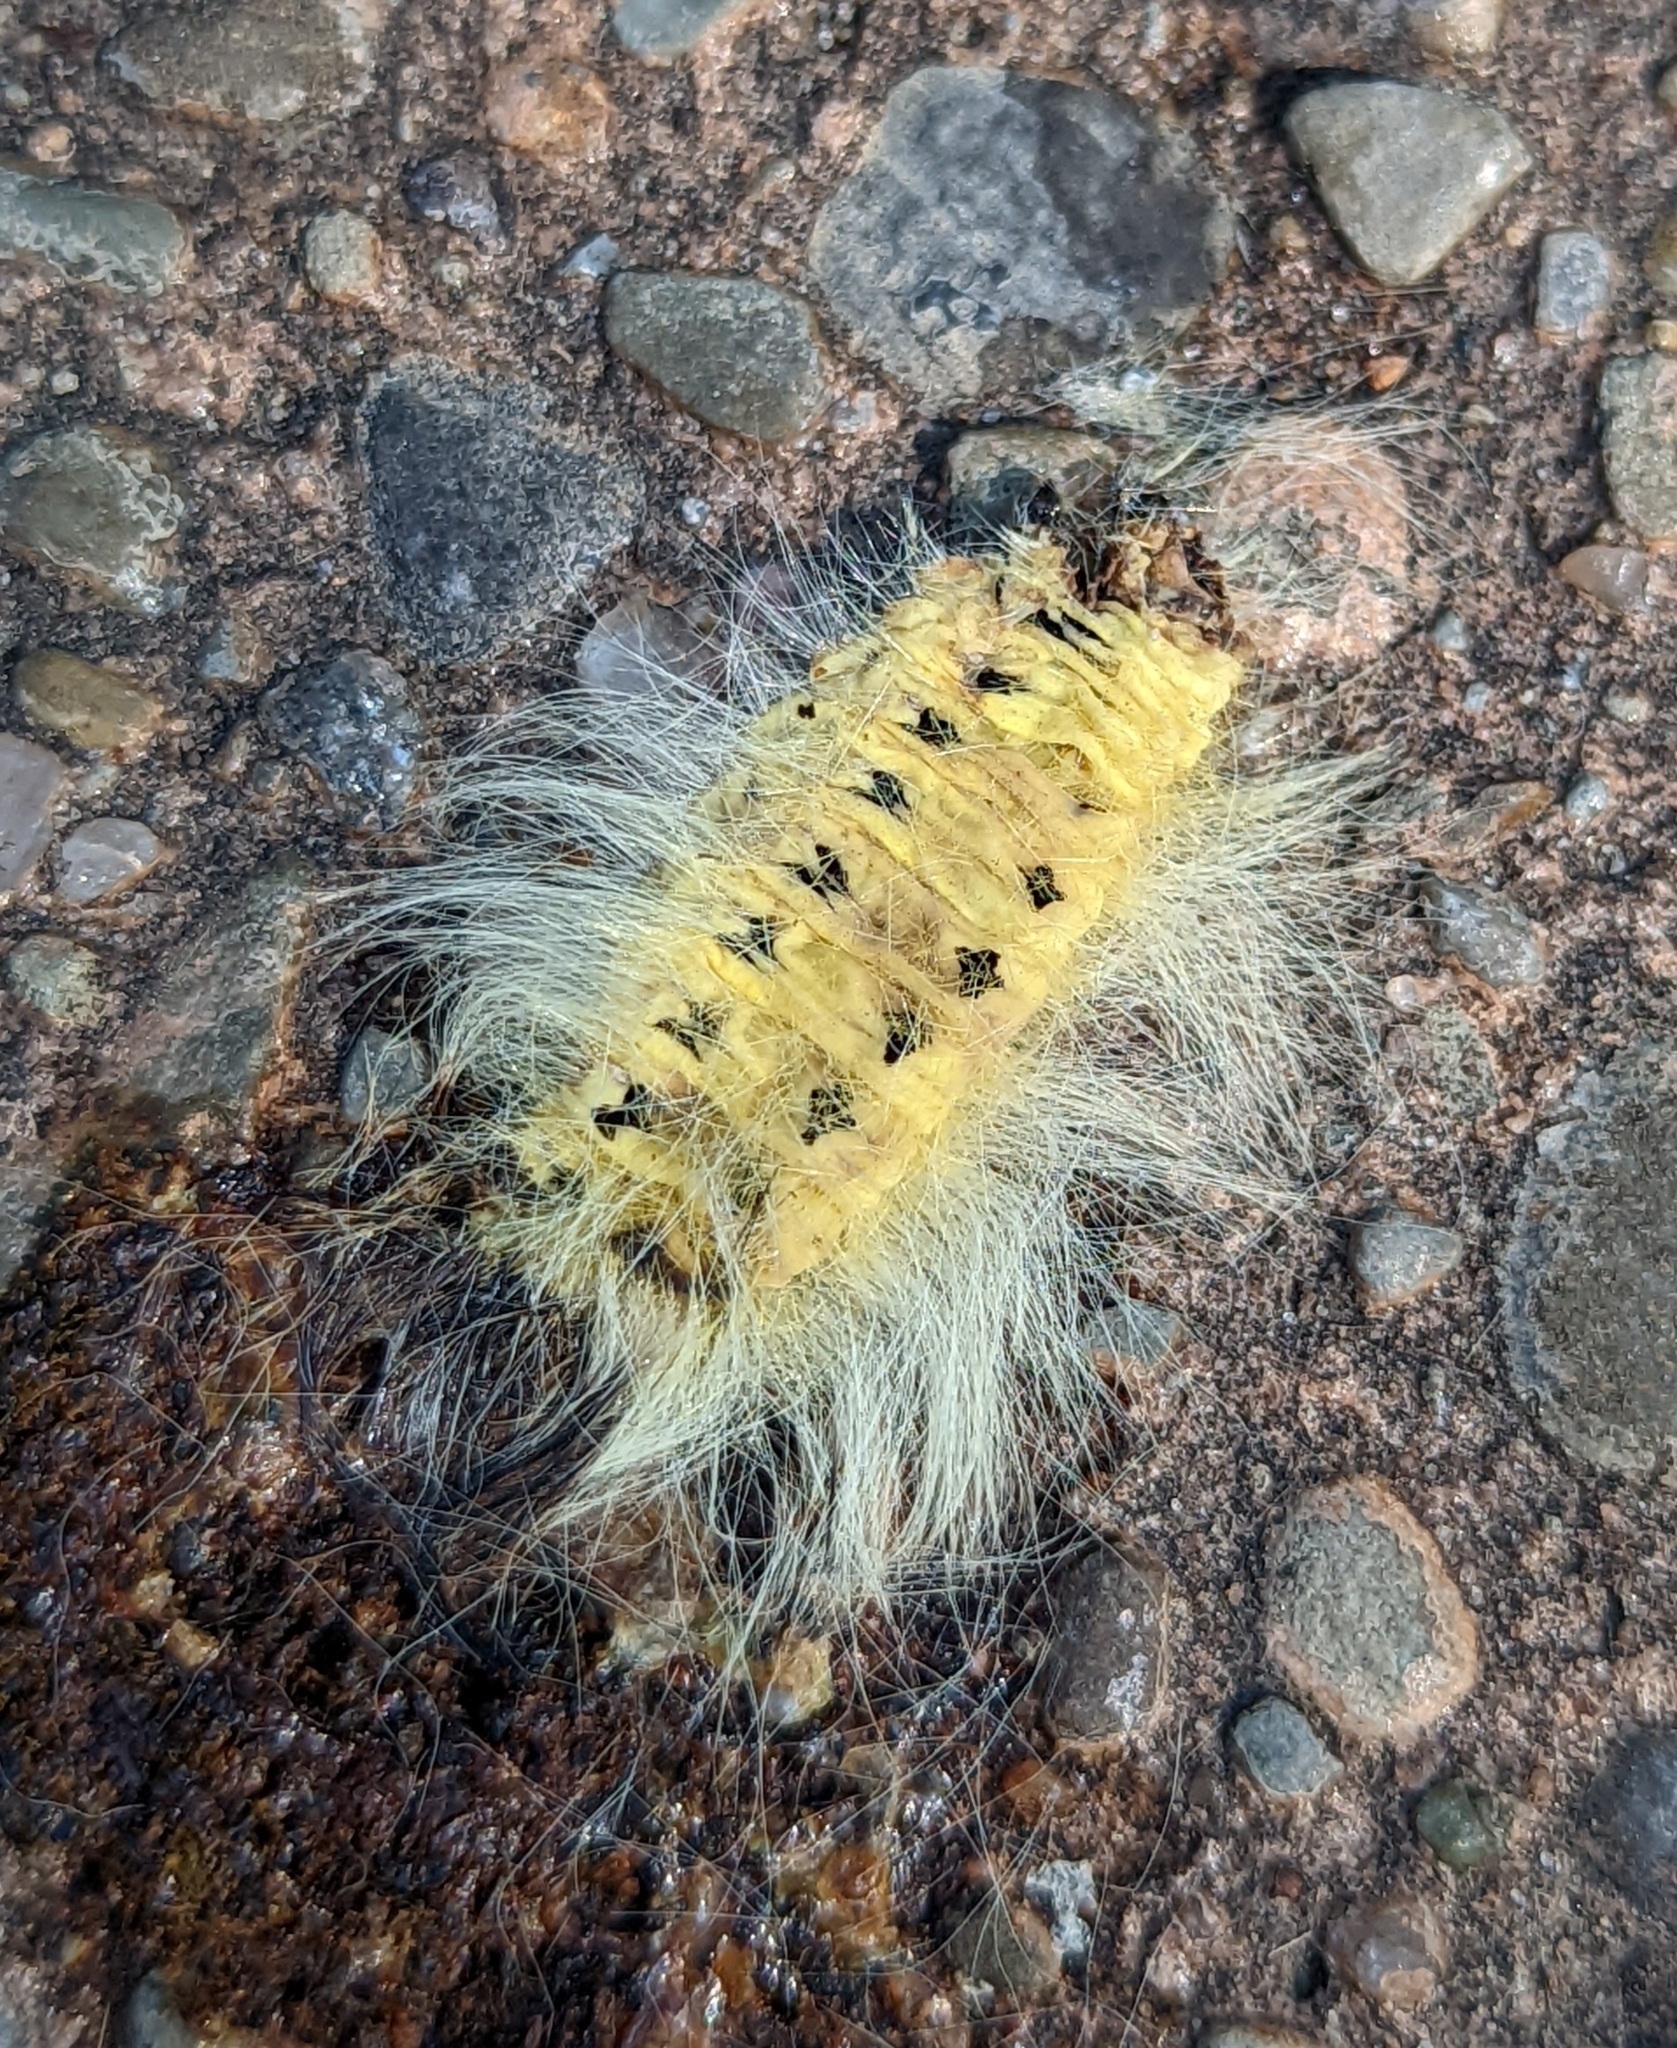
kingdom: Animalia
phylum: Arthropoda
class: Insecta
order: Lepidoptera
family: Apatelodidae
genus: Hygrochroa
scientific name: Hygrochroa Apatelodes torrefacta
